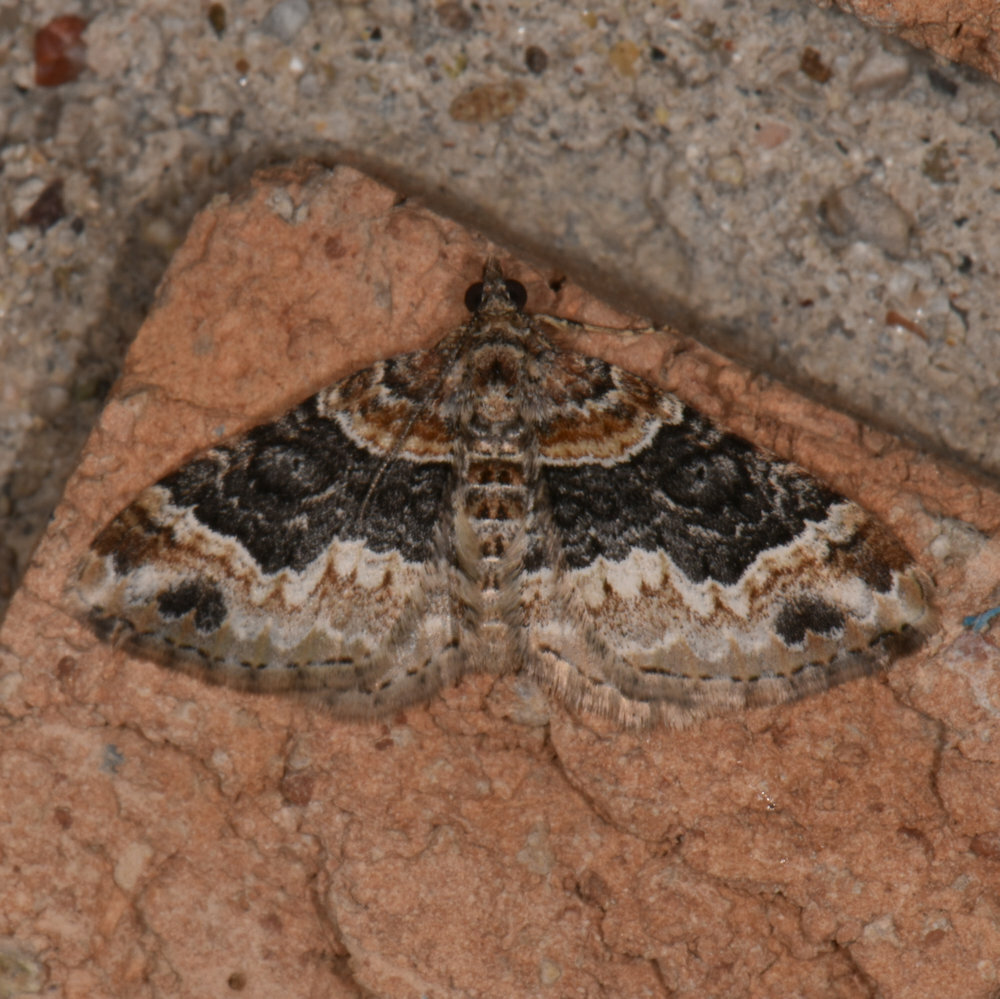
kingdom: Animalia
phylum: Arthropoda
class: Insecta
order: Lepidoptera
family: Geometridae
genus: Xanthorhoe
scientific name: Xanthorhoe ferrugata
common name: Dark-barred twin-spot carpet
